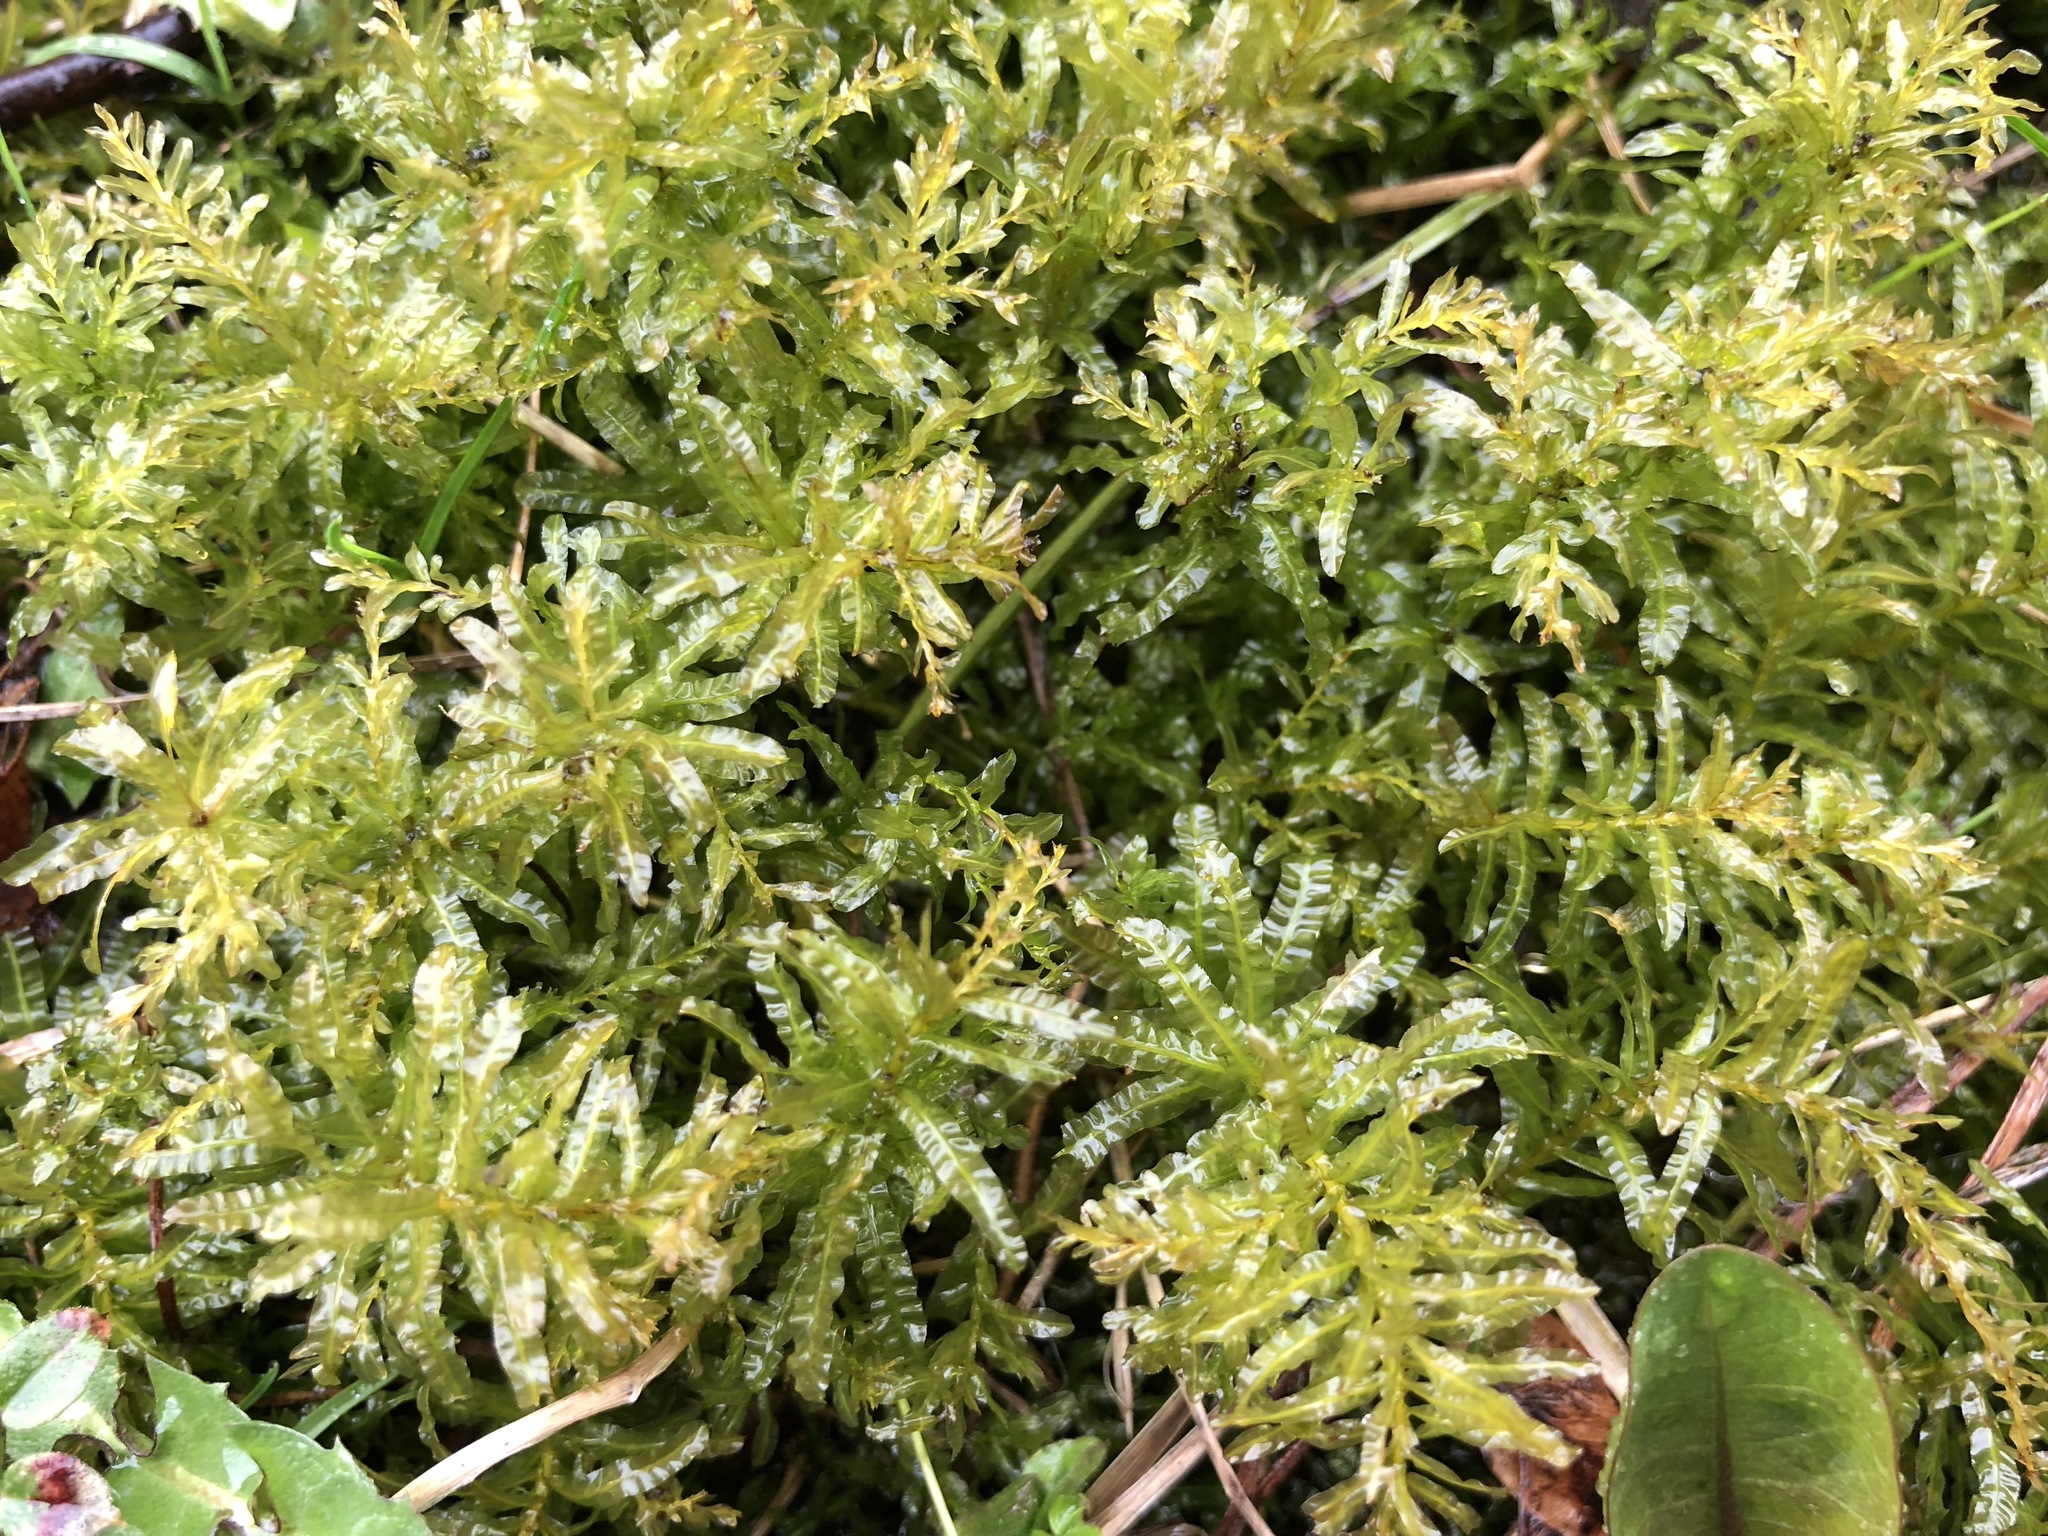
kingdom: Plantae
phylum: Bryophyta
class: Bryopsida
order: Bryales
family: Mniaceae
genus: Plagiomnium
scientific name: Plagiomnium undulatum
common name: Hart's-tongue thyme-moss
